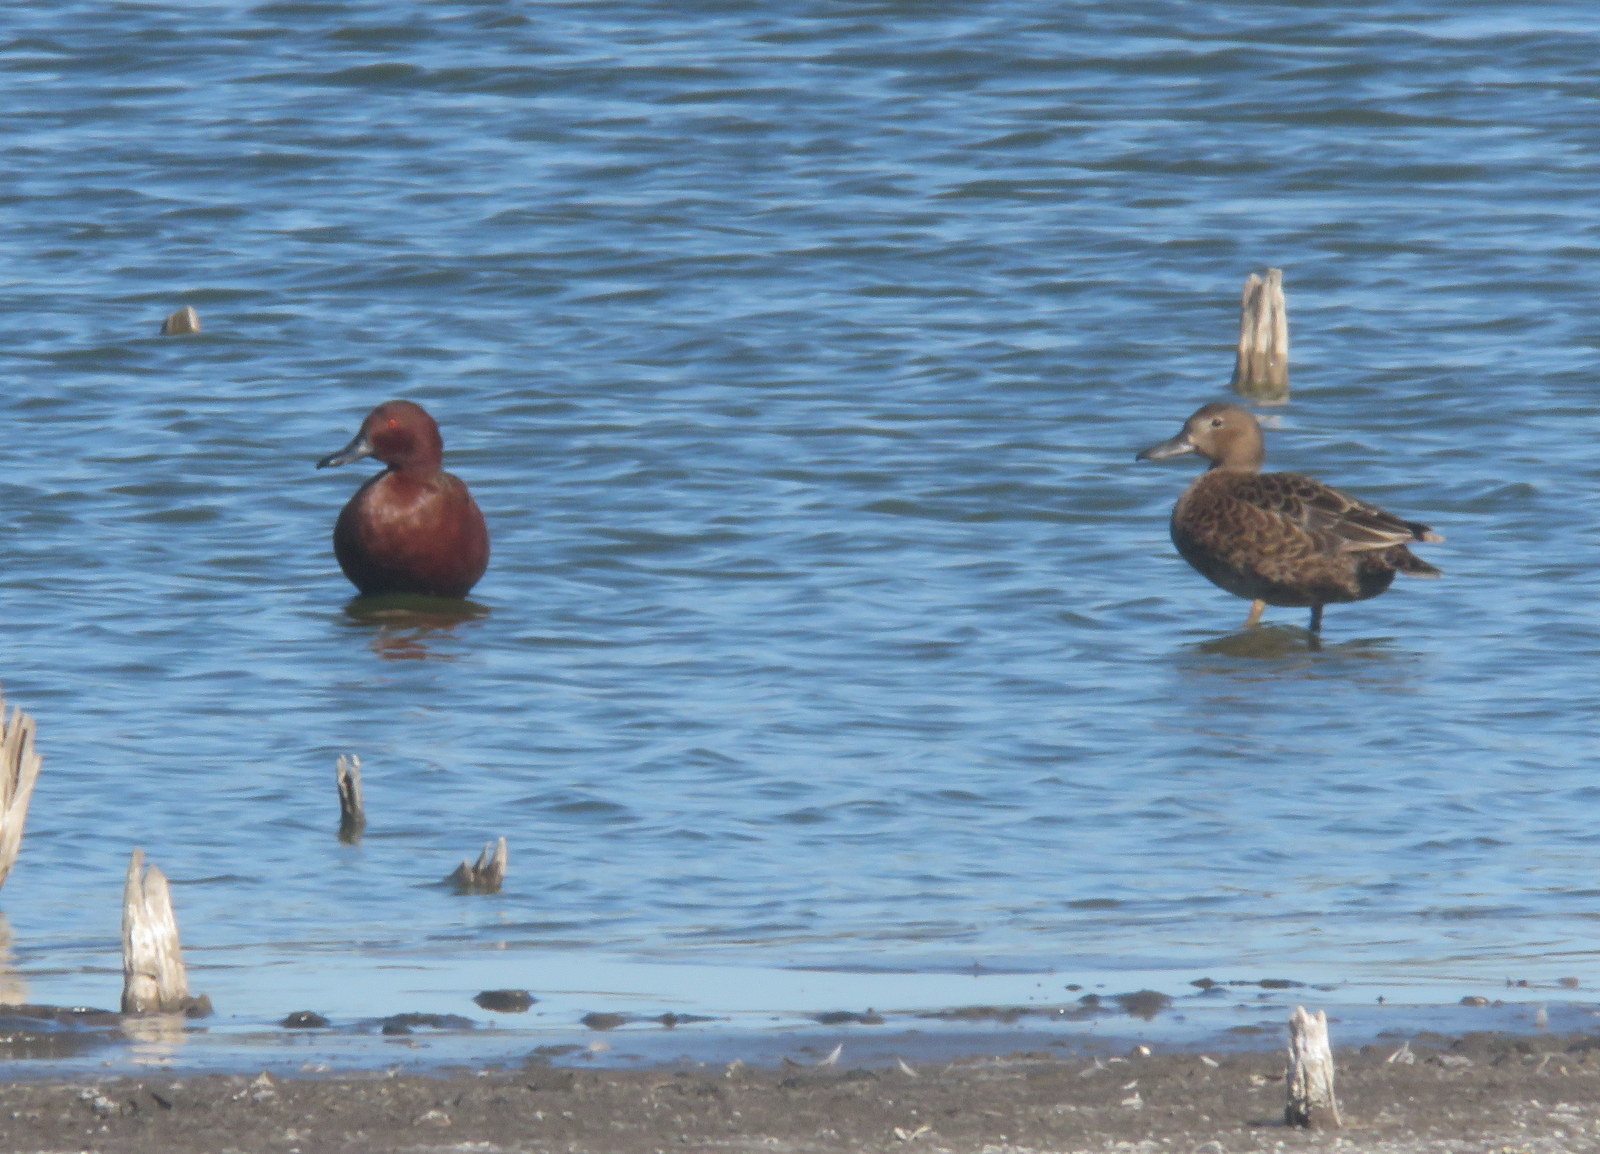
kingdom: Animalia
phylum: Chordata
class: Aves
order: Anseriformes
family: Anatidae
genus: Spatula
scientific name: Spatula cyanoptera
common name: Cinnamon teal
